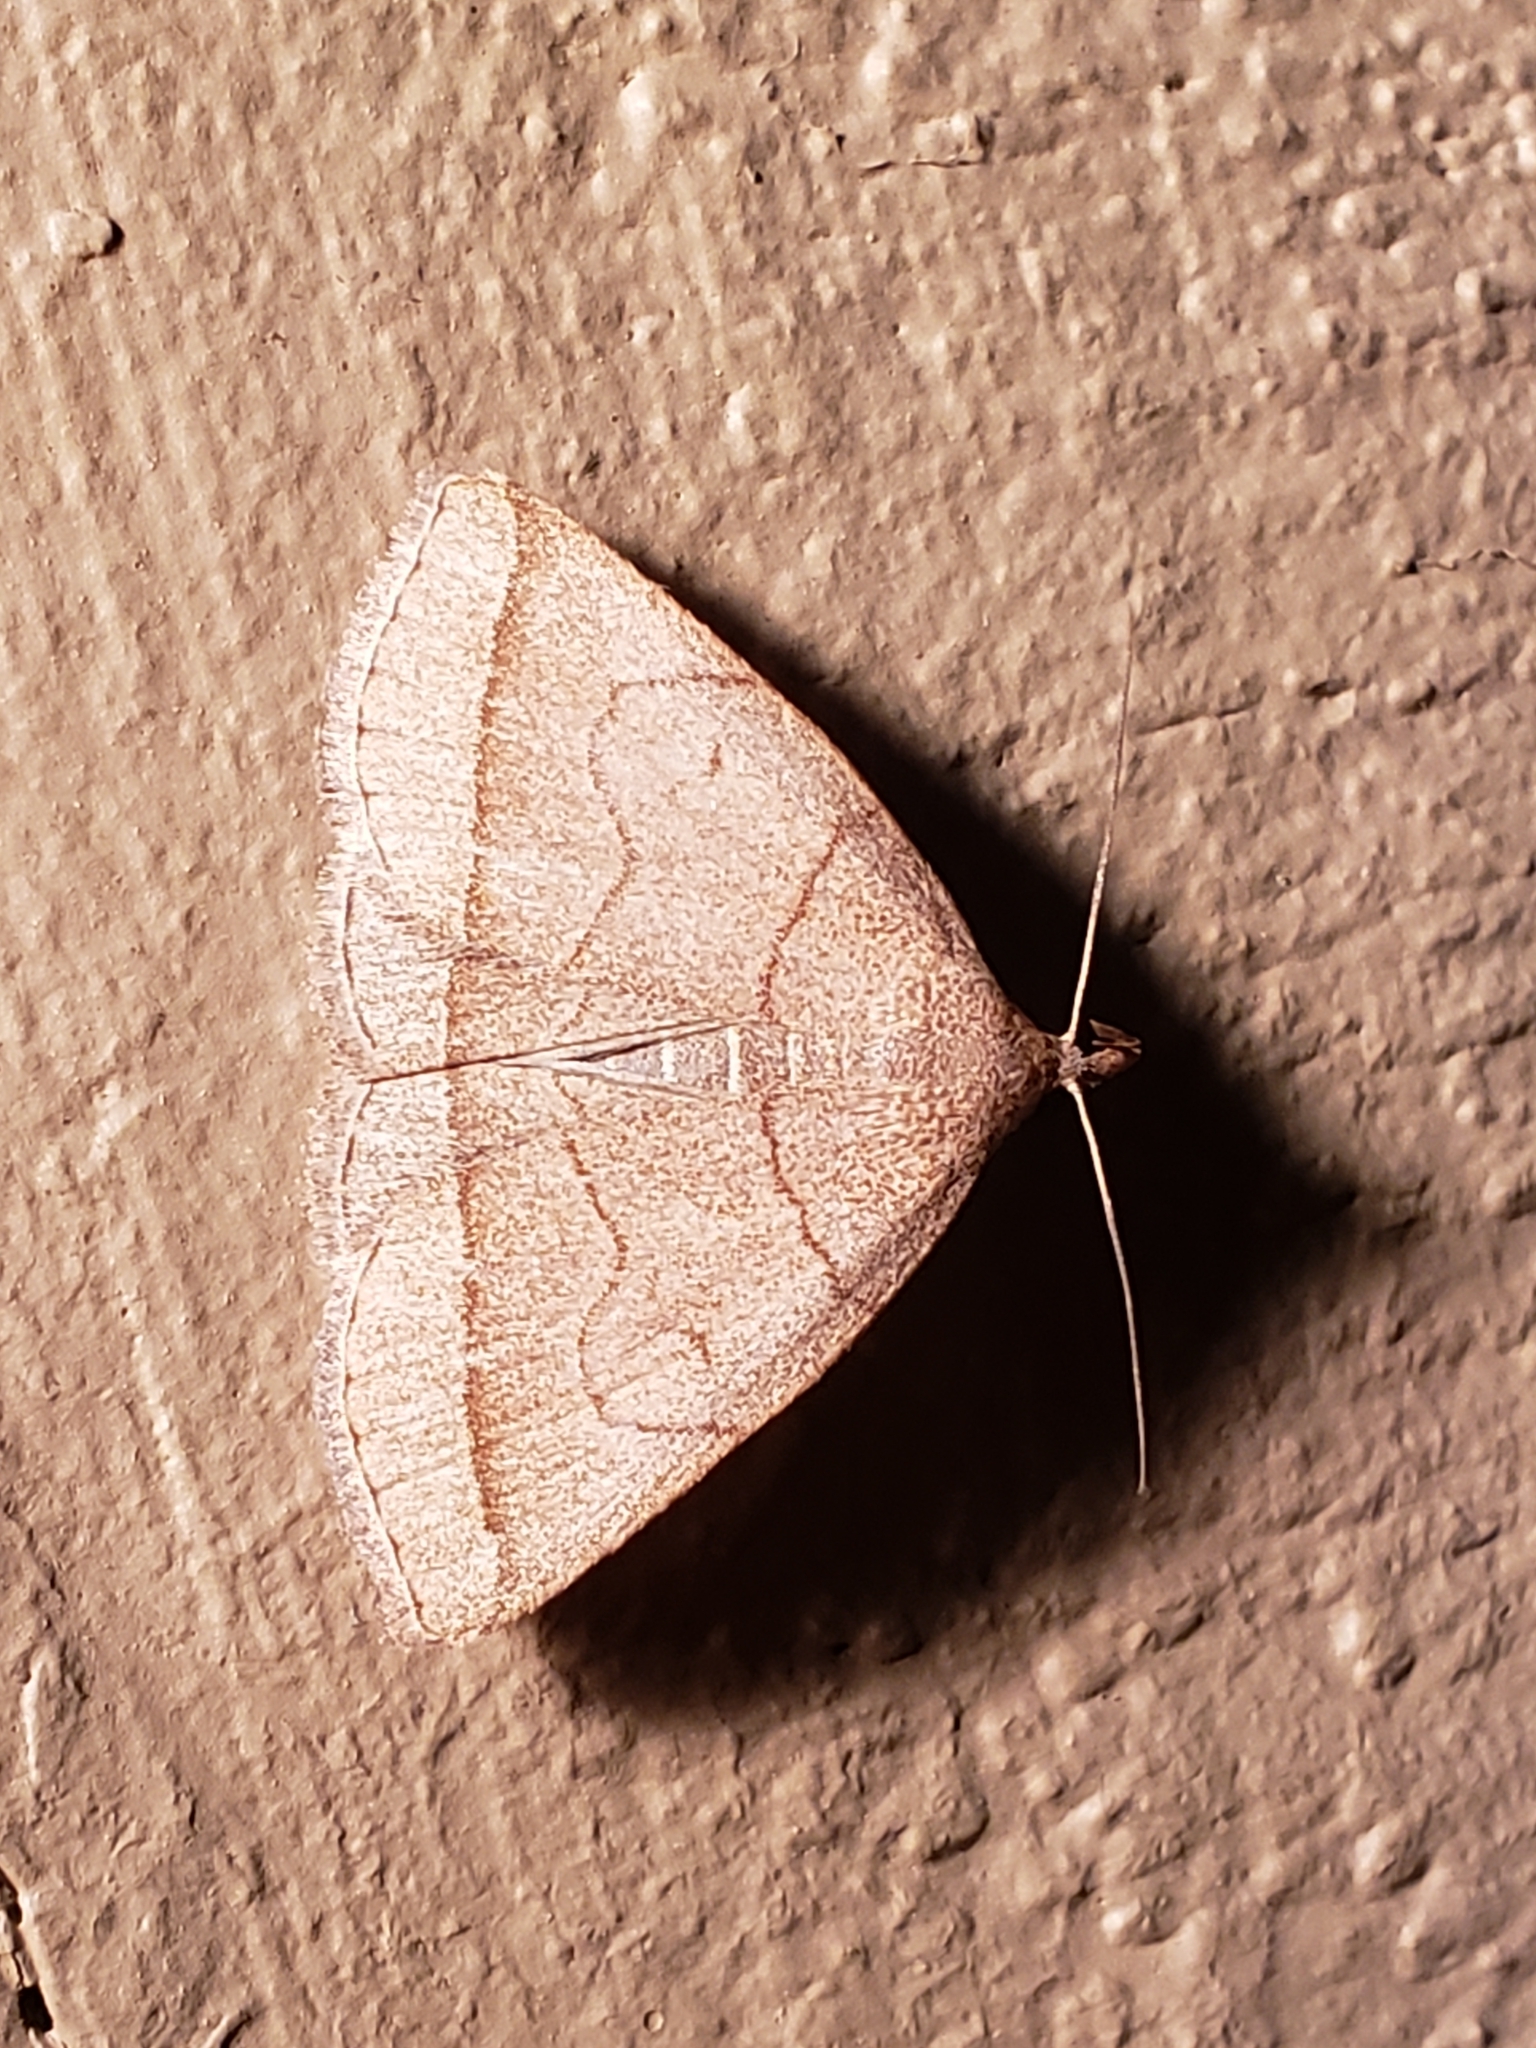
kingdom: Animalia
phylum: Arthropoda
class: Insecta
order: Lepidoptera
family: Erebidae
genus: Zanclognatha
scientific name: Zanclognatha cruralis
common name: Early fan-foot
